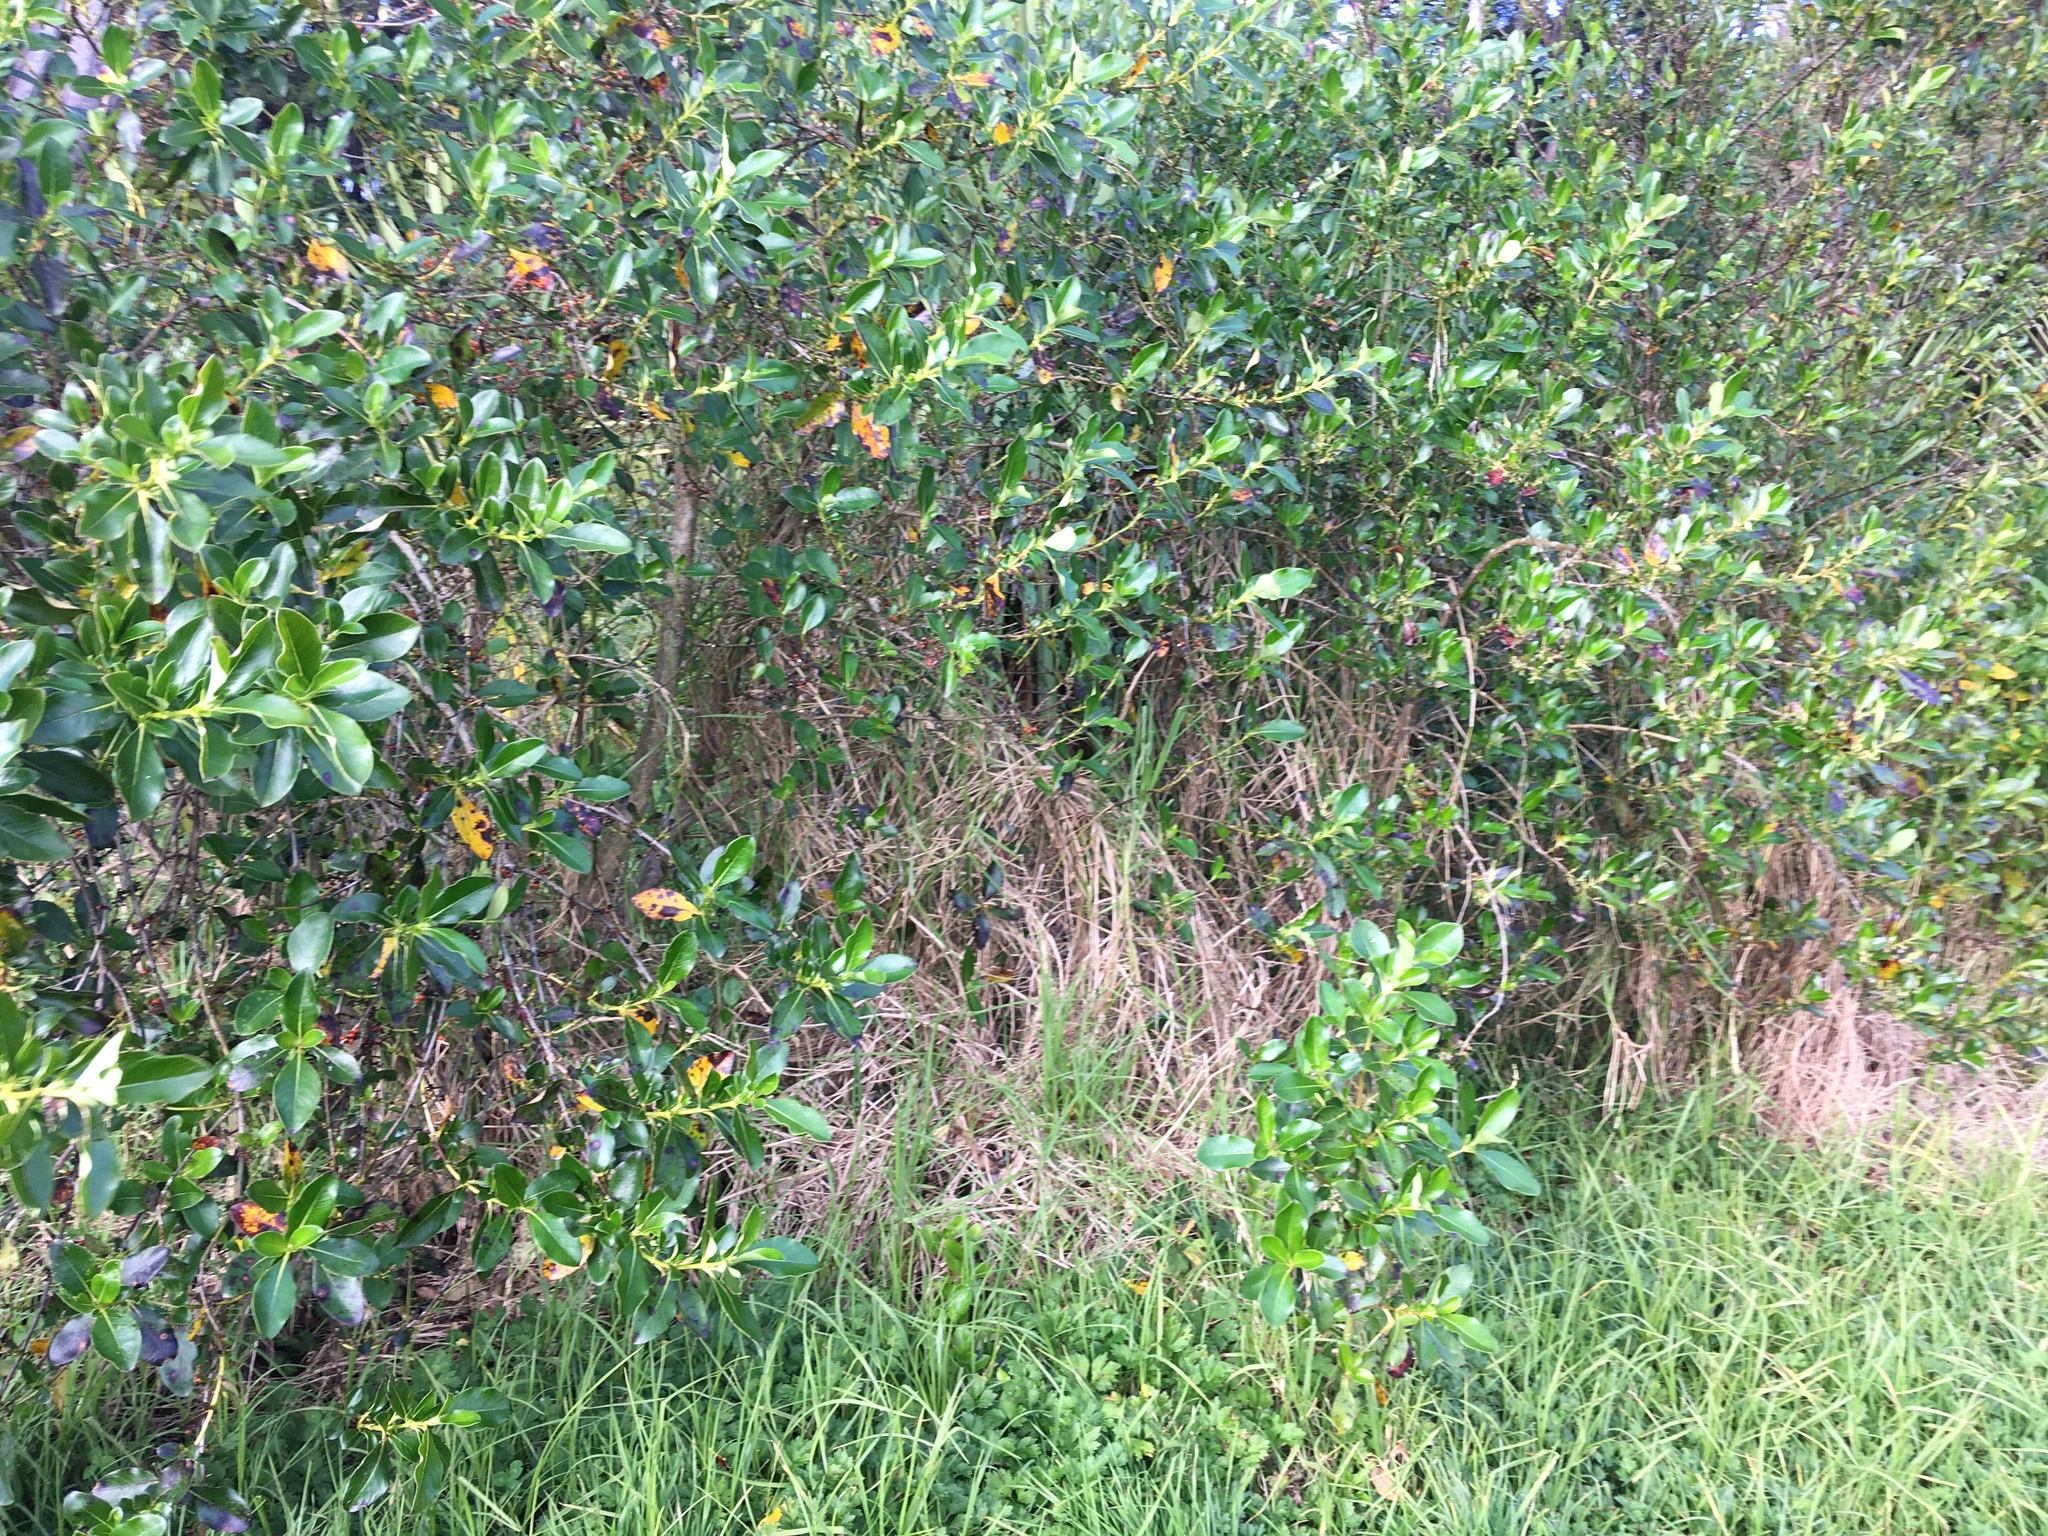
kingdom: Plantae
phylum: Tracheophyta
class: Magnoliopsida
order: Gentianales
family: Rubiaceae
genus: Coprosma
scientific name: Coprosma robusta
